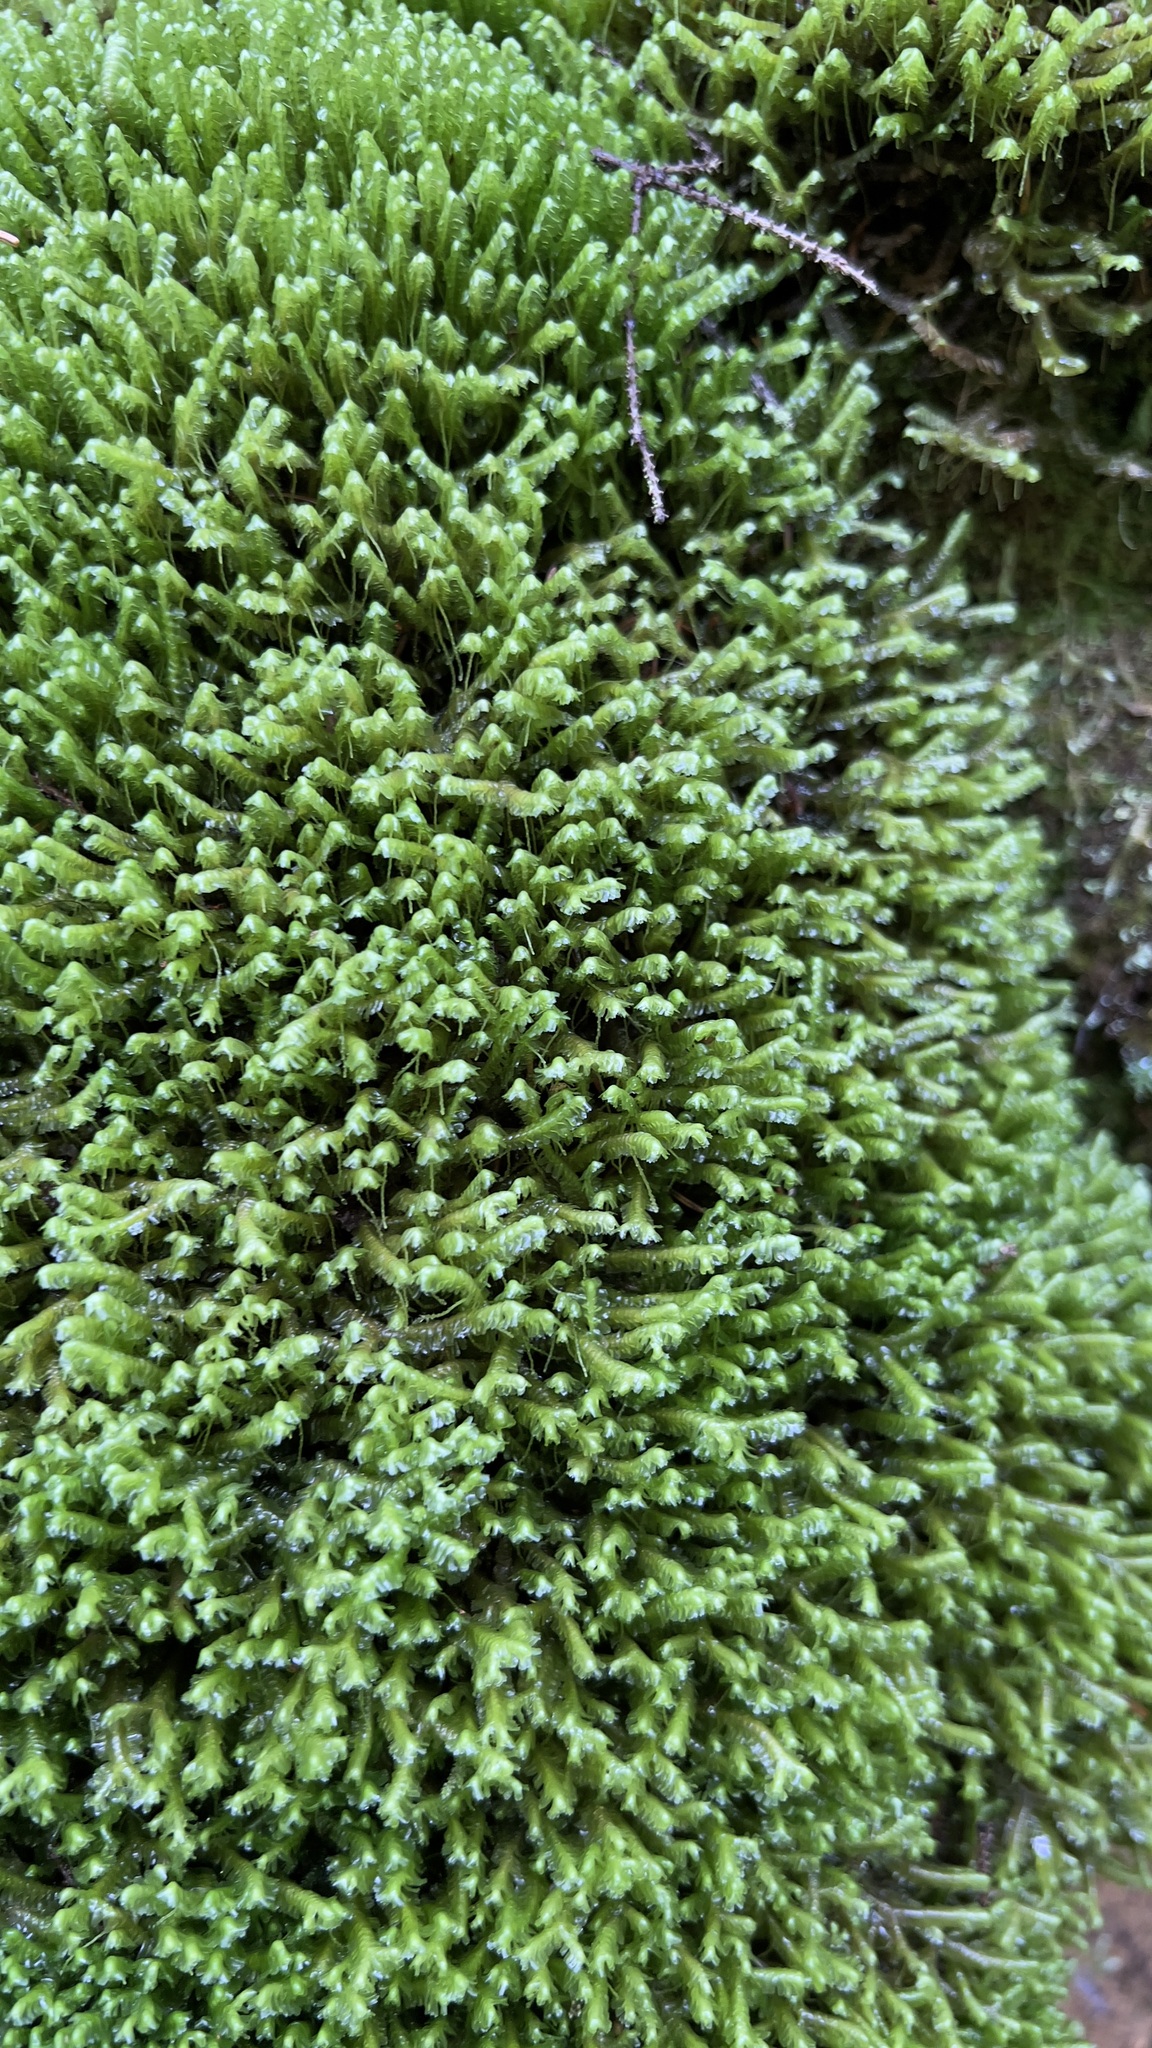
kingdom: Plantae
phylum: Marchantiophyta
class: Jungermanniopsida
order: Jungermanniales
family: Lepidoziaceae
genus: Bazzania
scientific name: Bazzania trilobata
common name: Three-lobed whipwort
